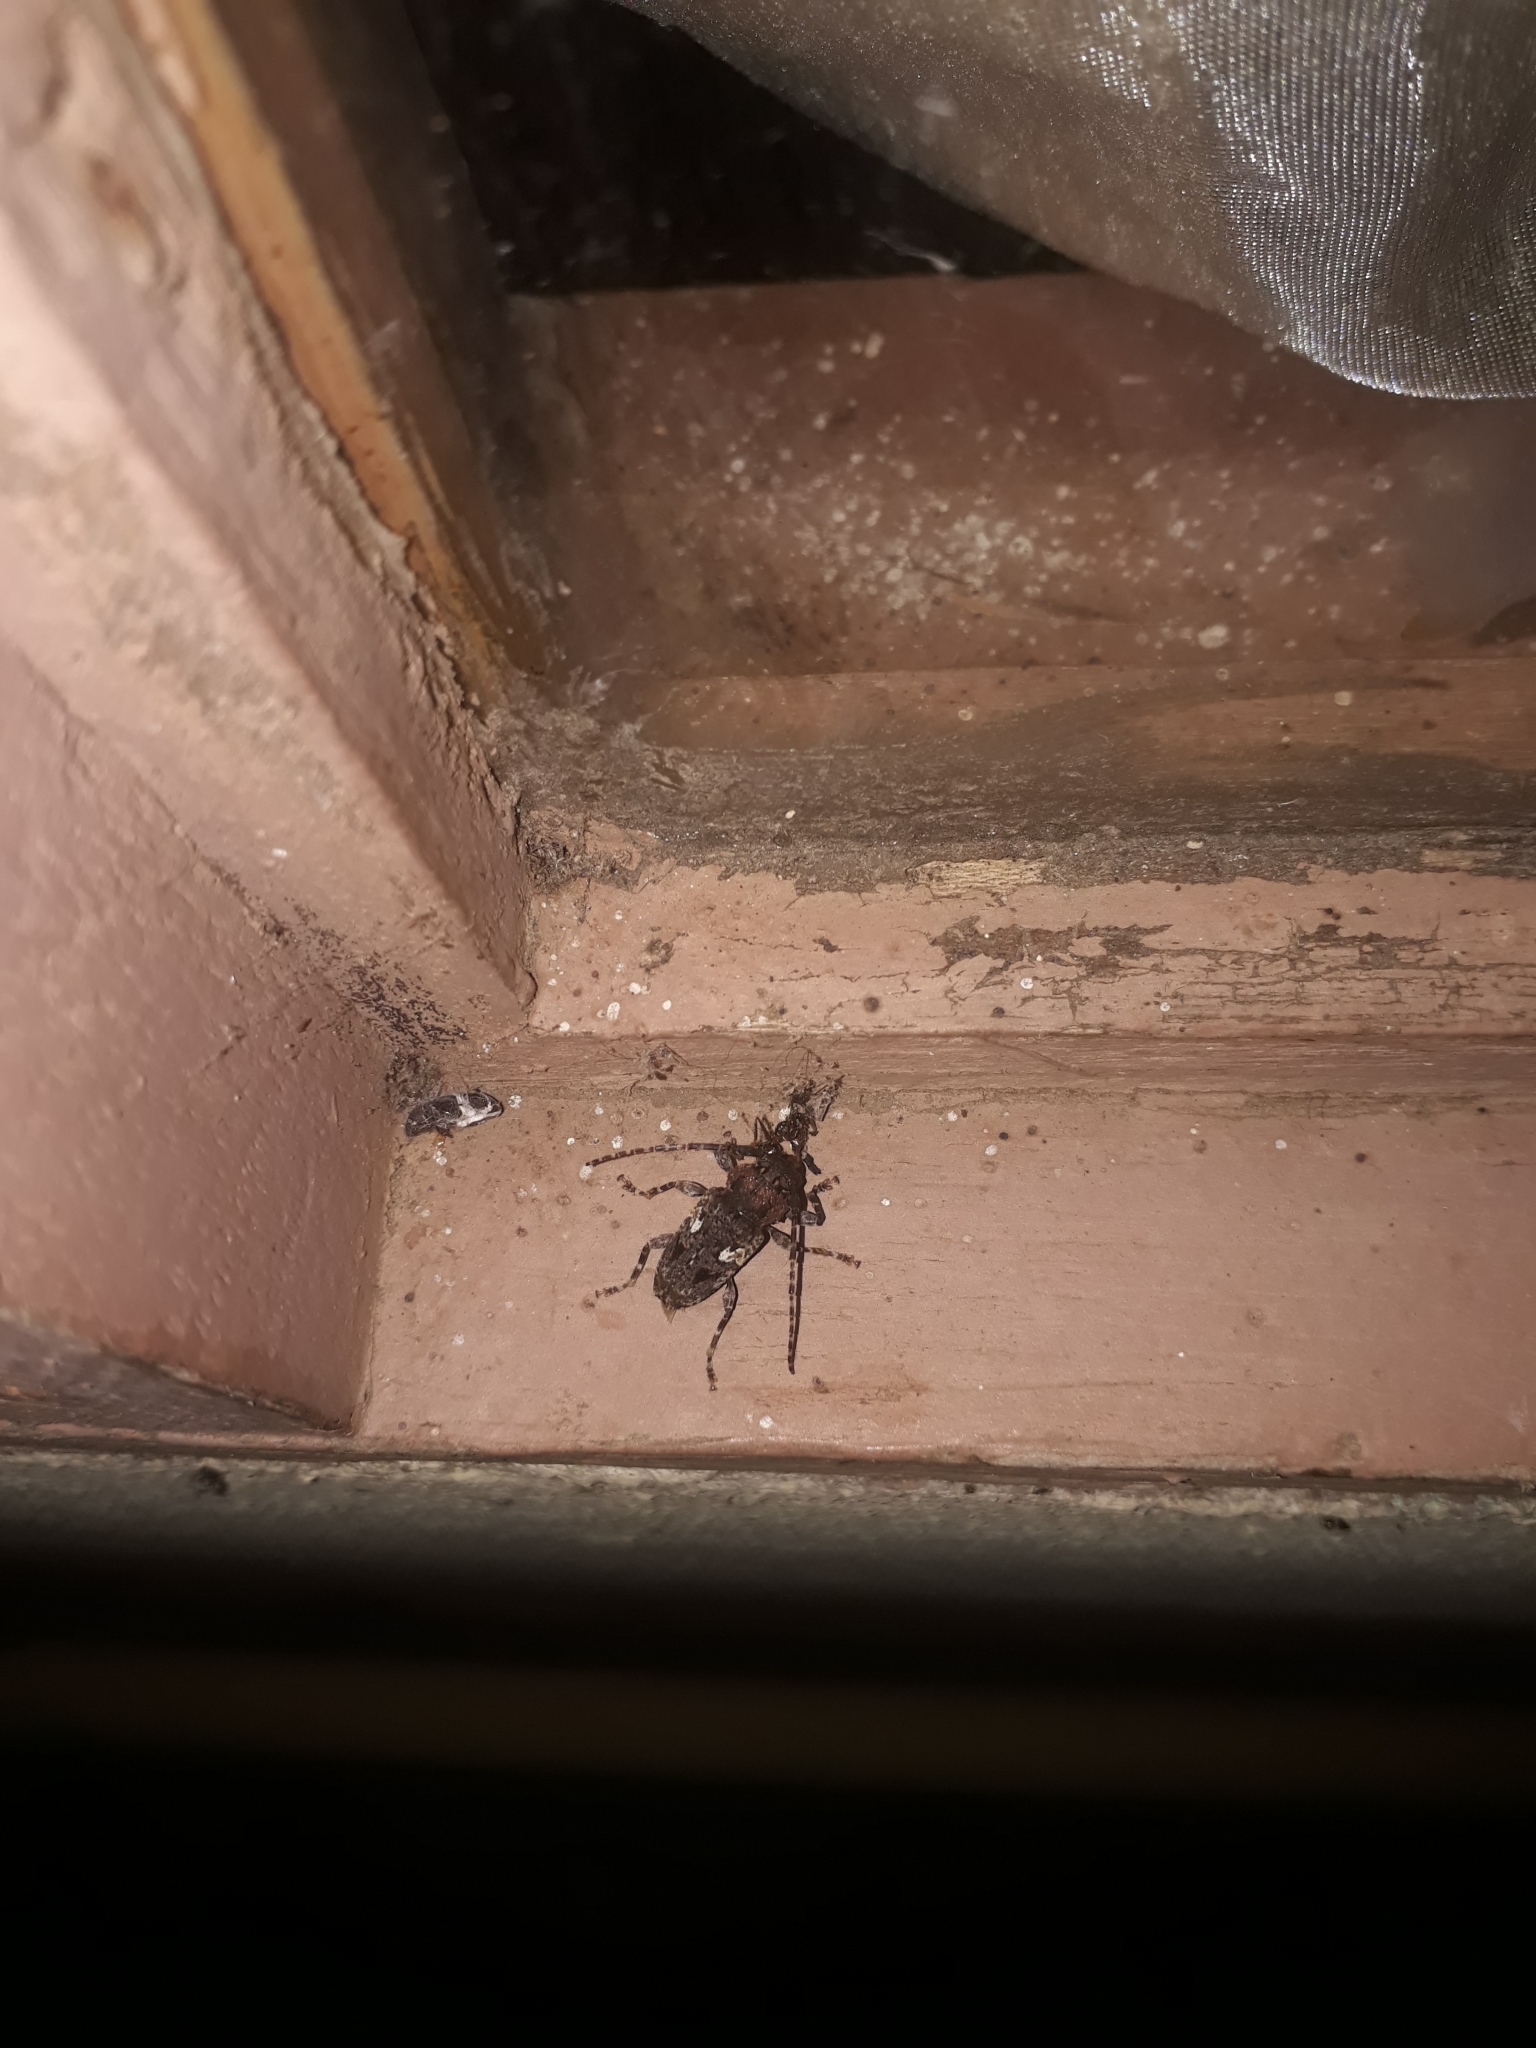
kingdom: Animalia
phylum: Arthropoda
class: Insecta
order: Coleoptera
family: Cerambycidae
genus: Psapharochrus
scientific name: Psapharochrus circumflexus
